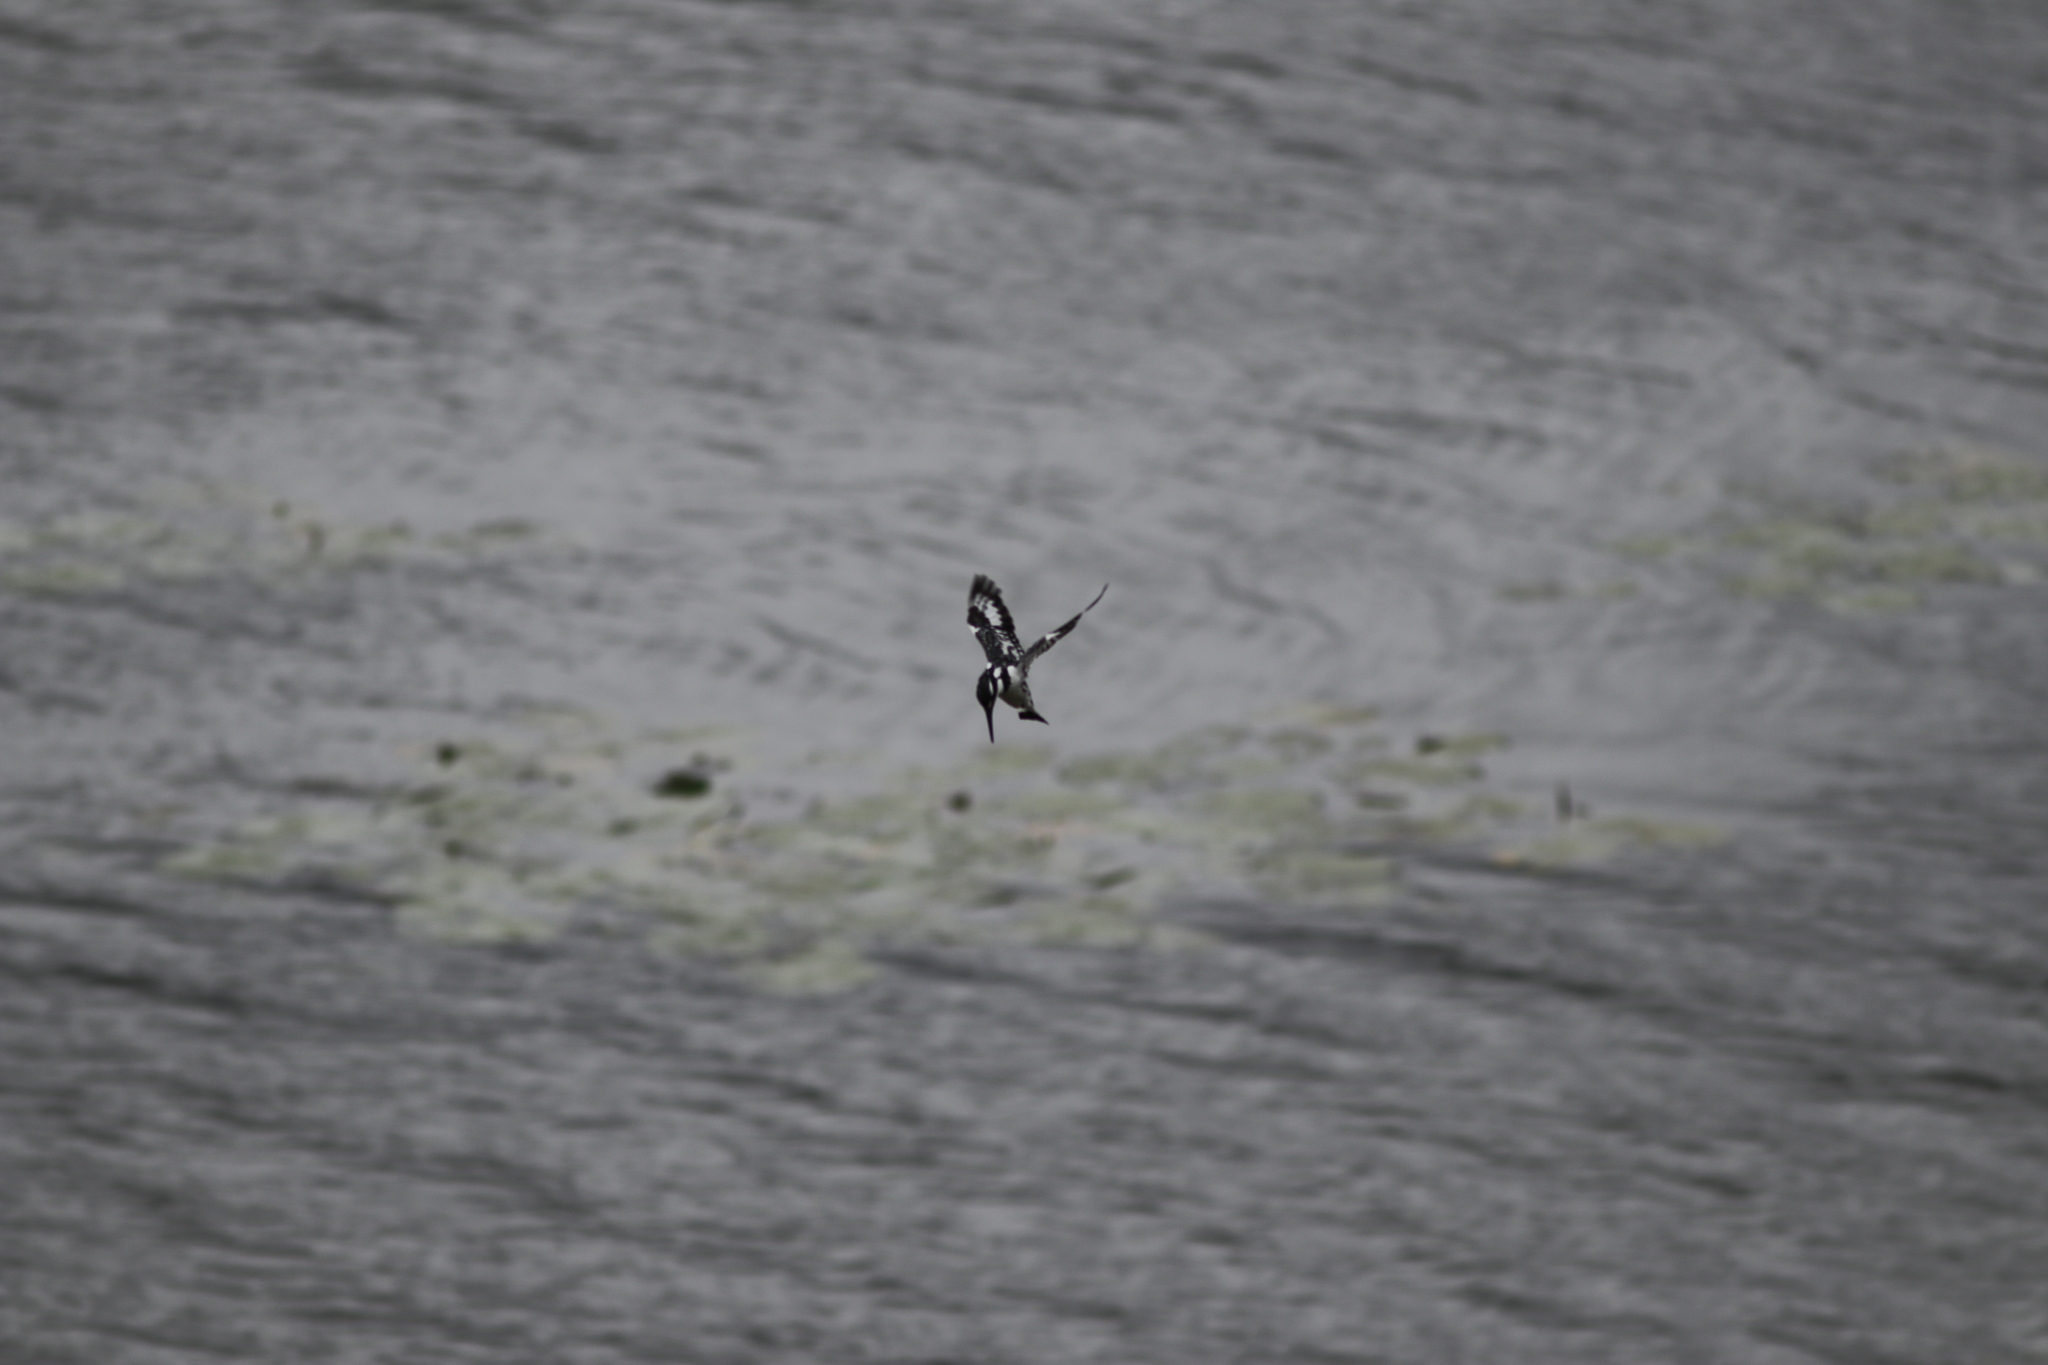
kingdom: Animalia
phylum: Chordata
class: Aves
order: Coraciiformes
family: Alcedinidae
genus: Ceryle
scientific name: Ceryle rudis
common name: Pied kingfisher
